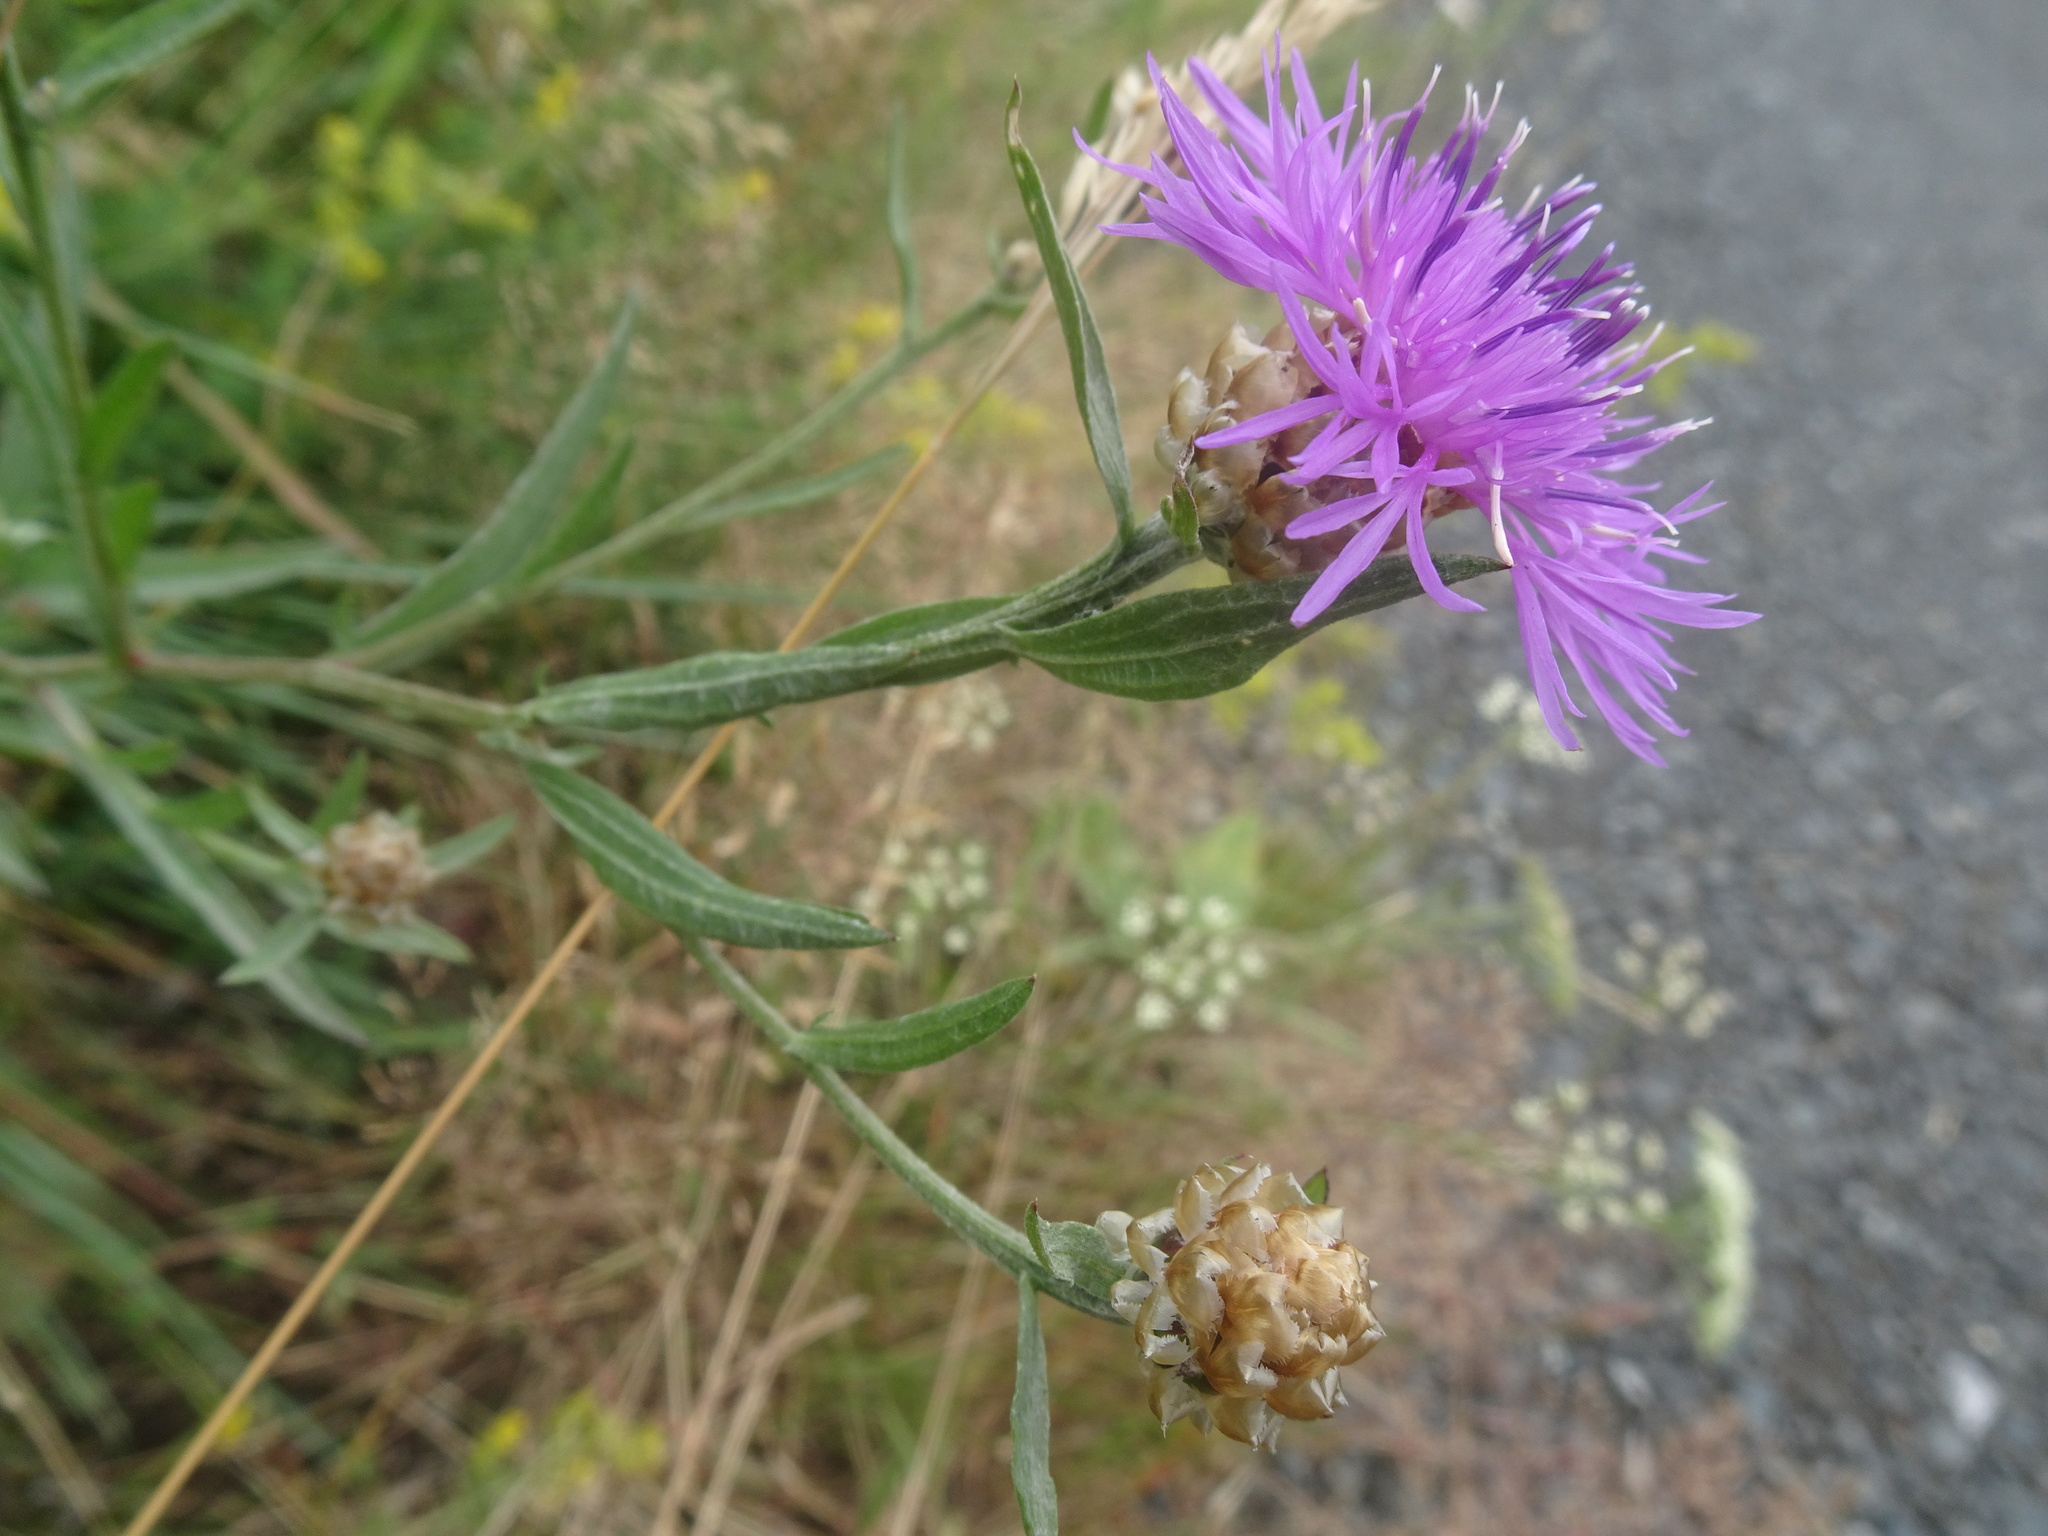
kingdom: Plantae
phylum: Tracheophyta
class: Magnoliopsida
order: Asterales
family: Asteraceae
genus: Centaurea
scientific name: Centaurea jacea
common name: Brown knapweed
